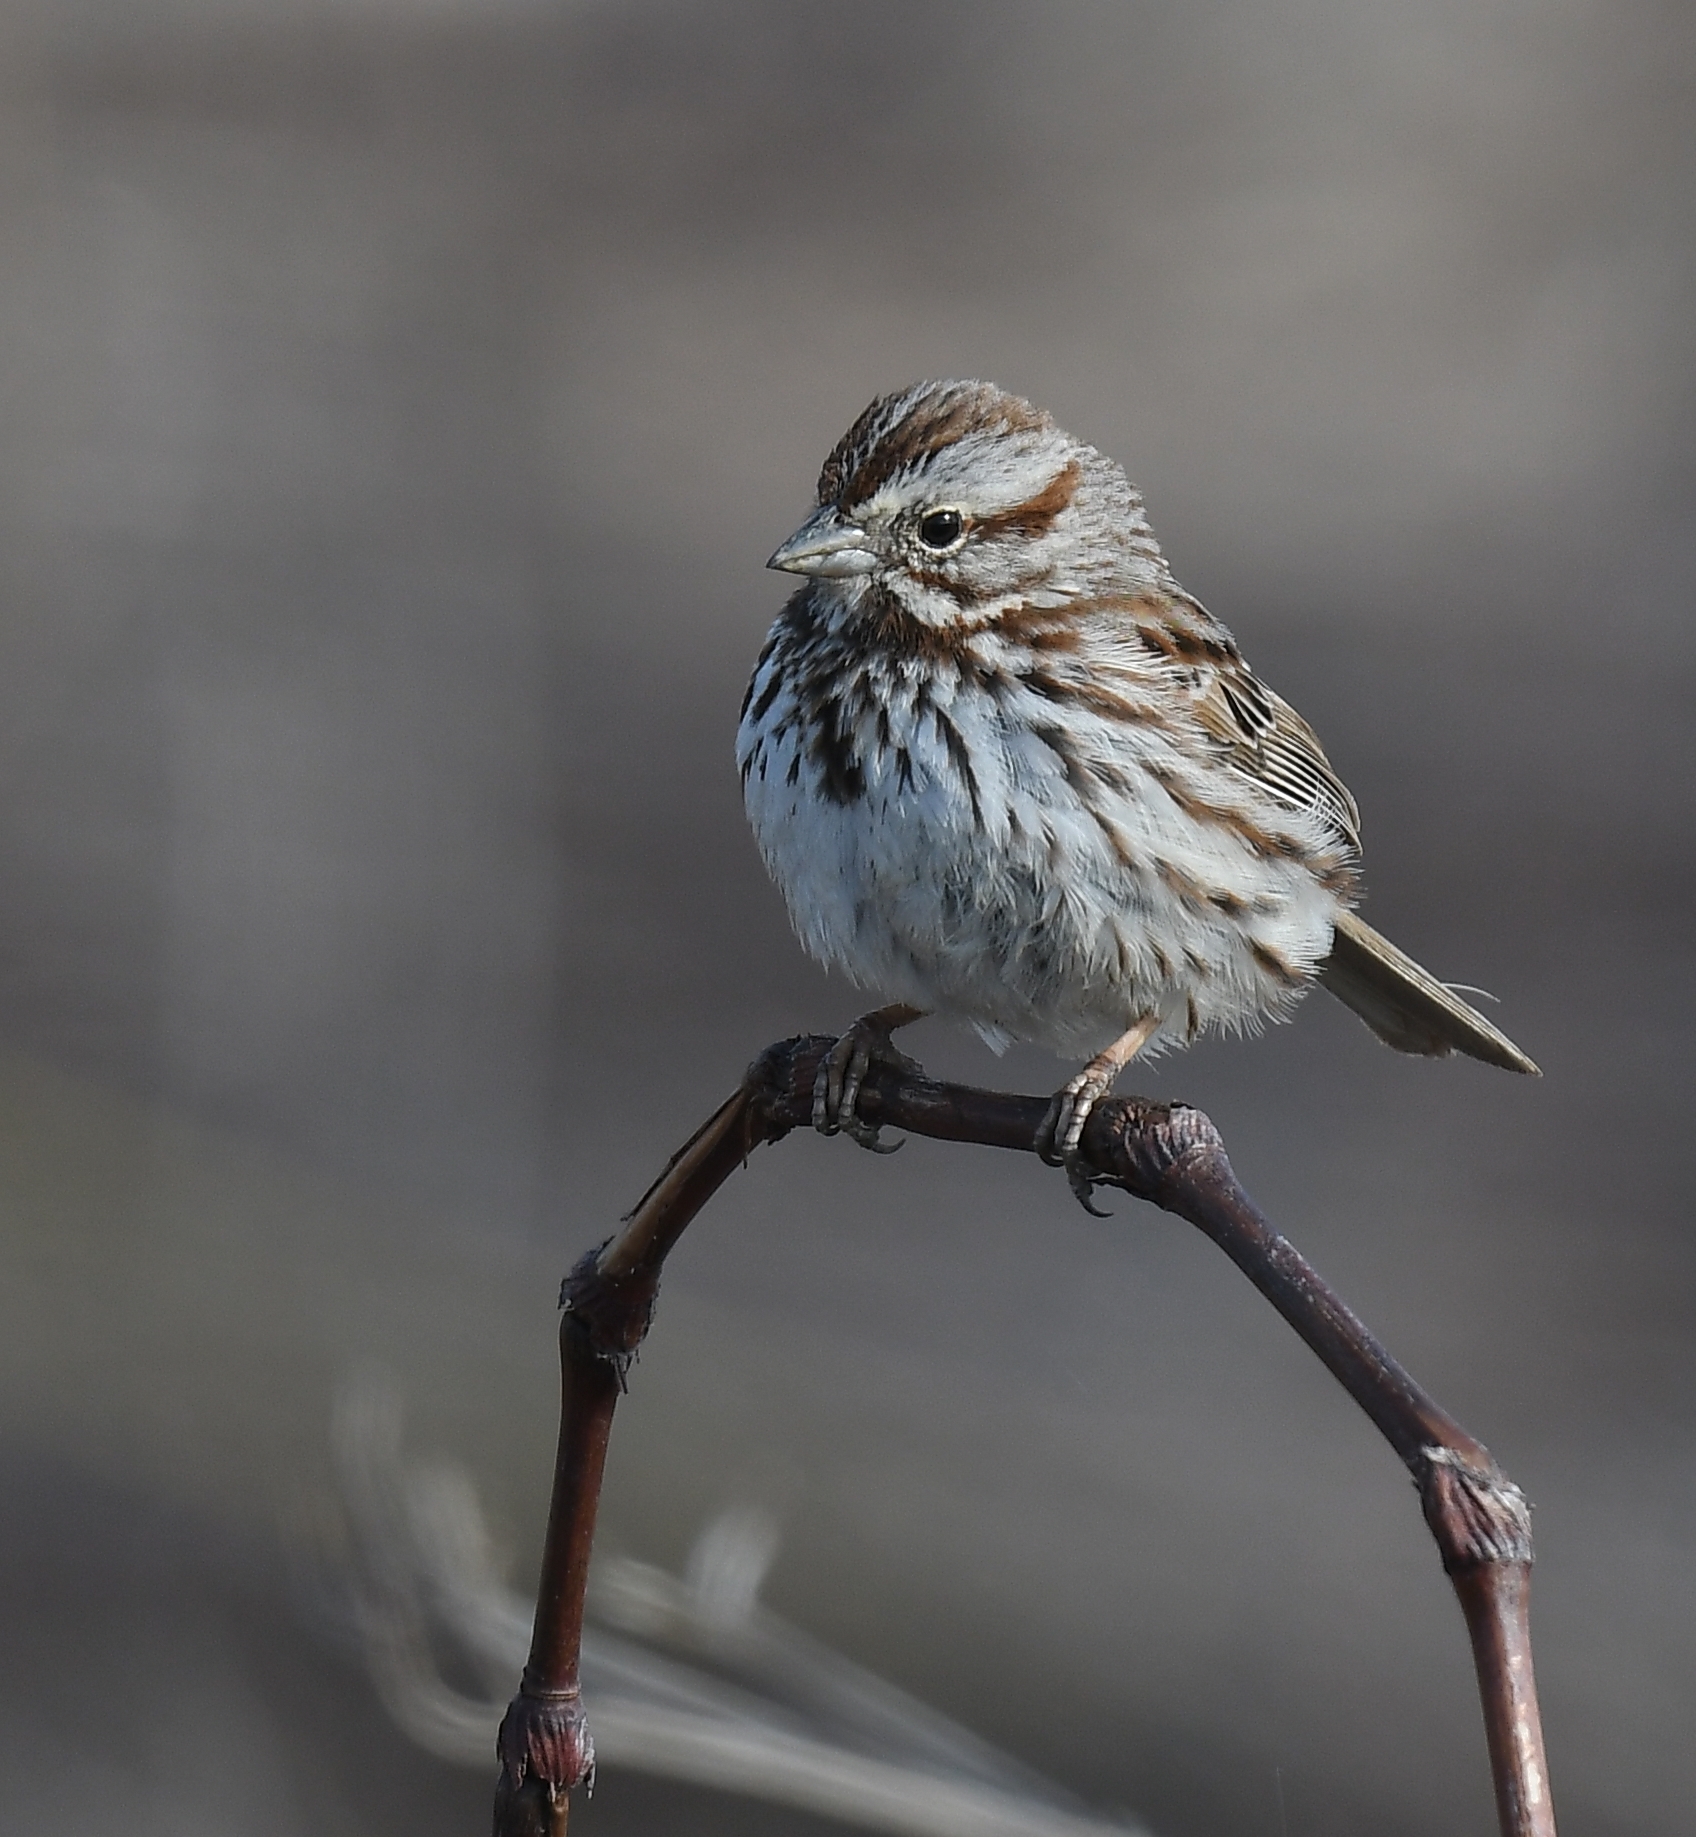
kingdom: Animalia
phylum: Chordata
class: Aves
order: Passeriformes
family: Passerellidae
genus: Melospiza
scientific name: Melospiza melodia
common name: Song sparrow
